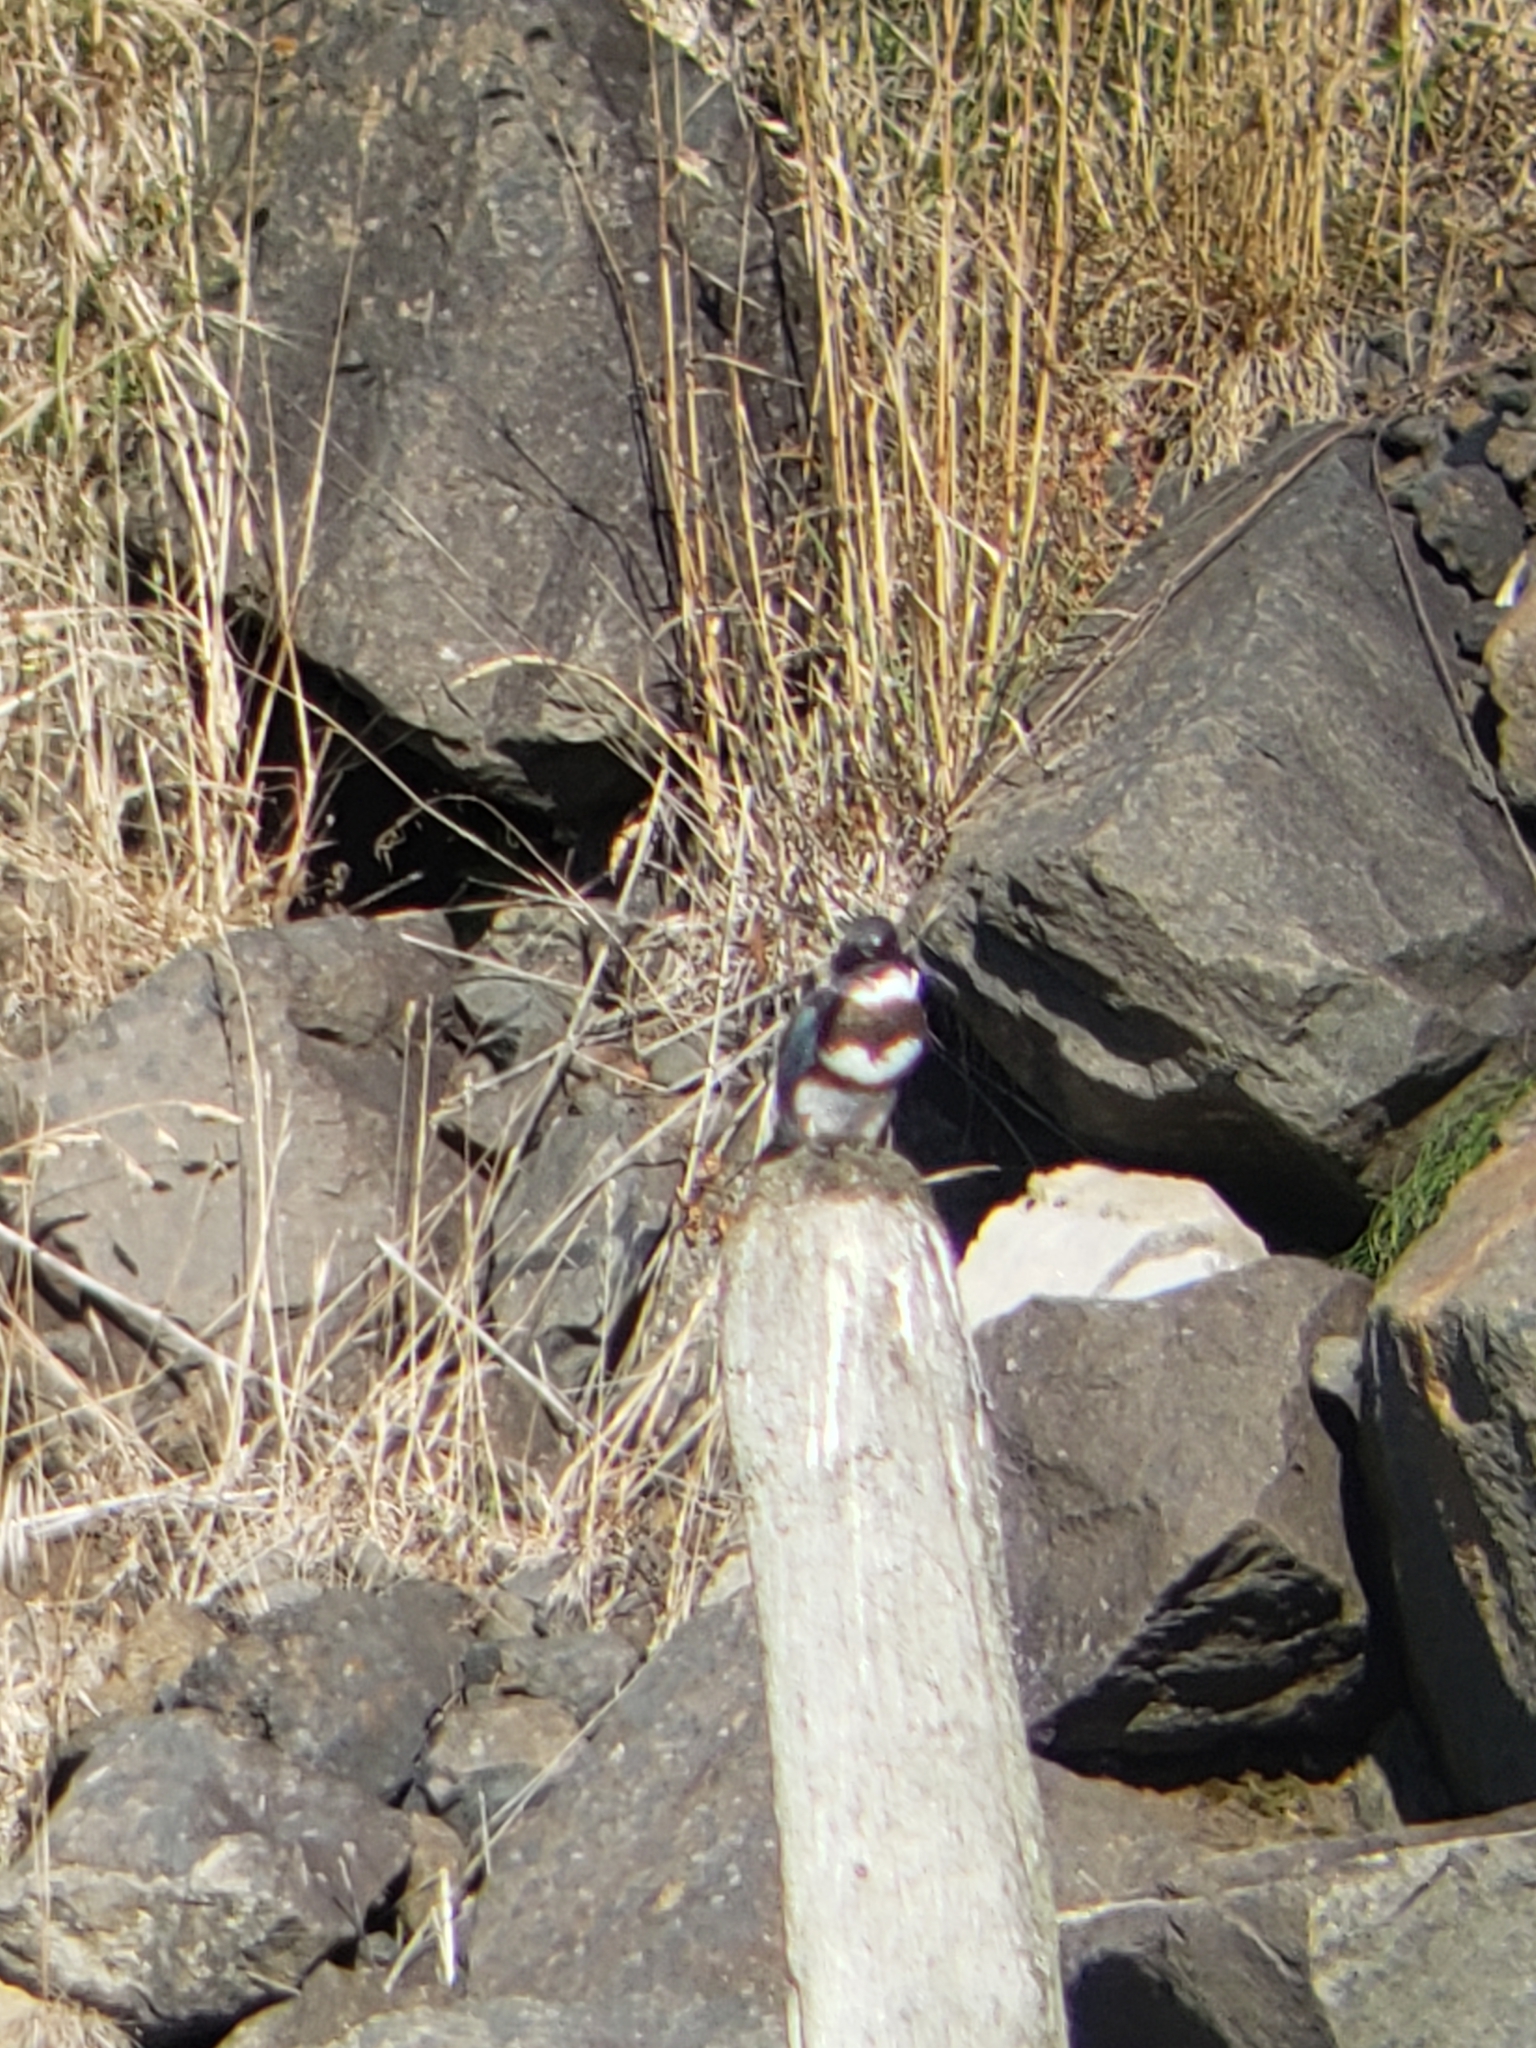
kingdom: Animalia
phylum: Chordata
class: Aves
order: Coraciiformes
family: Alcedinidae
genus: Megaceryle
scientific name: Megaceryle alcyon
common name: Belted kingfisher
